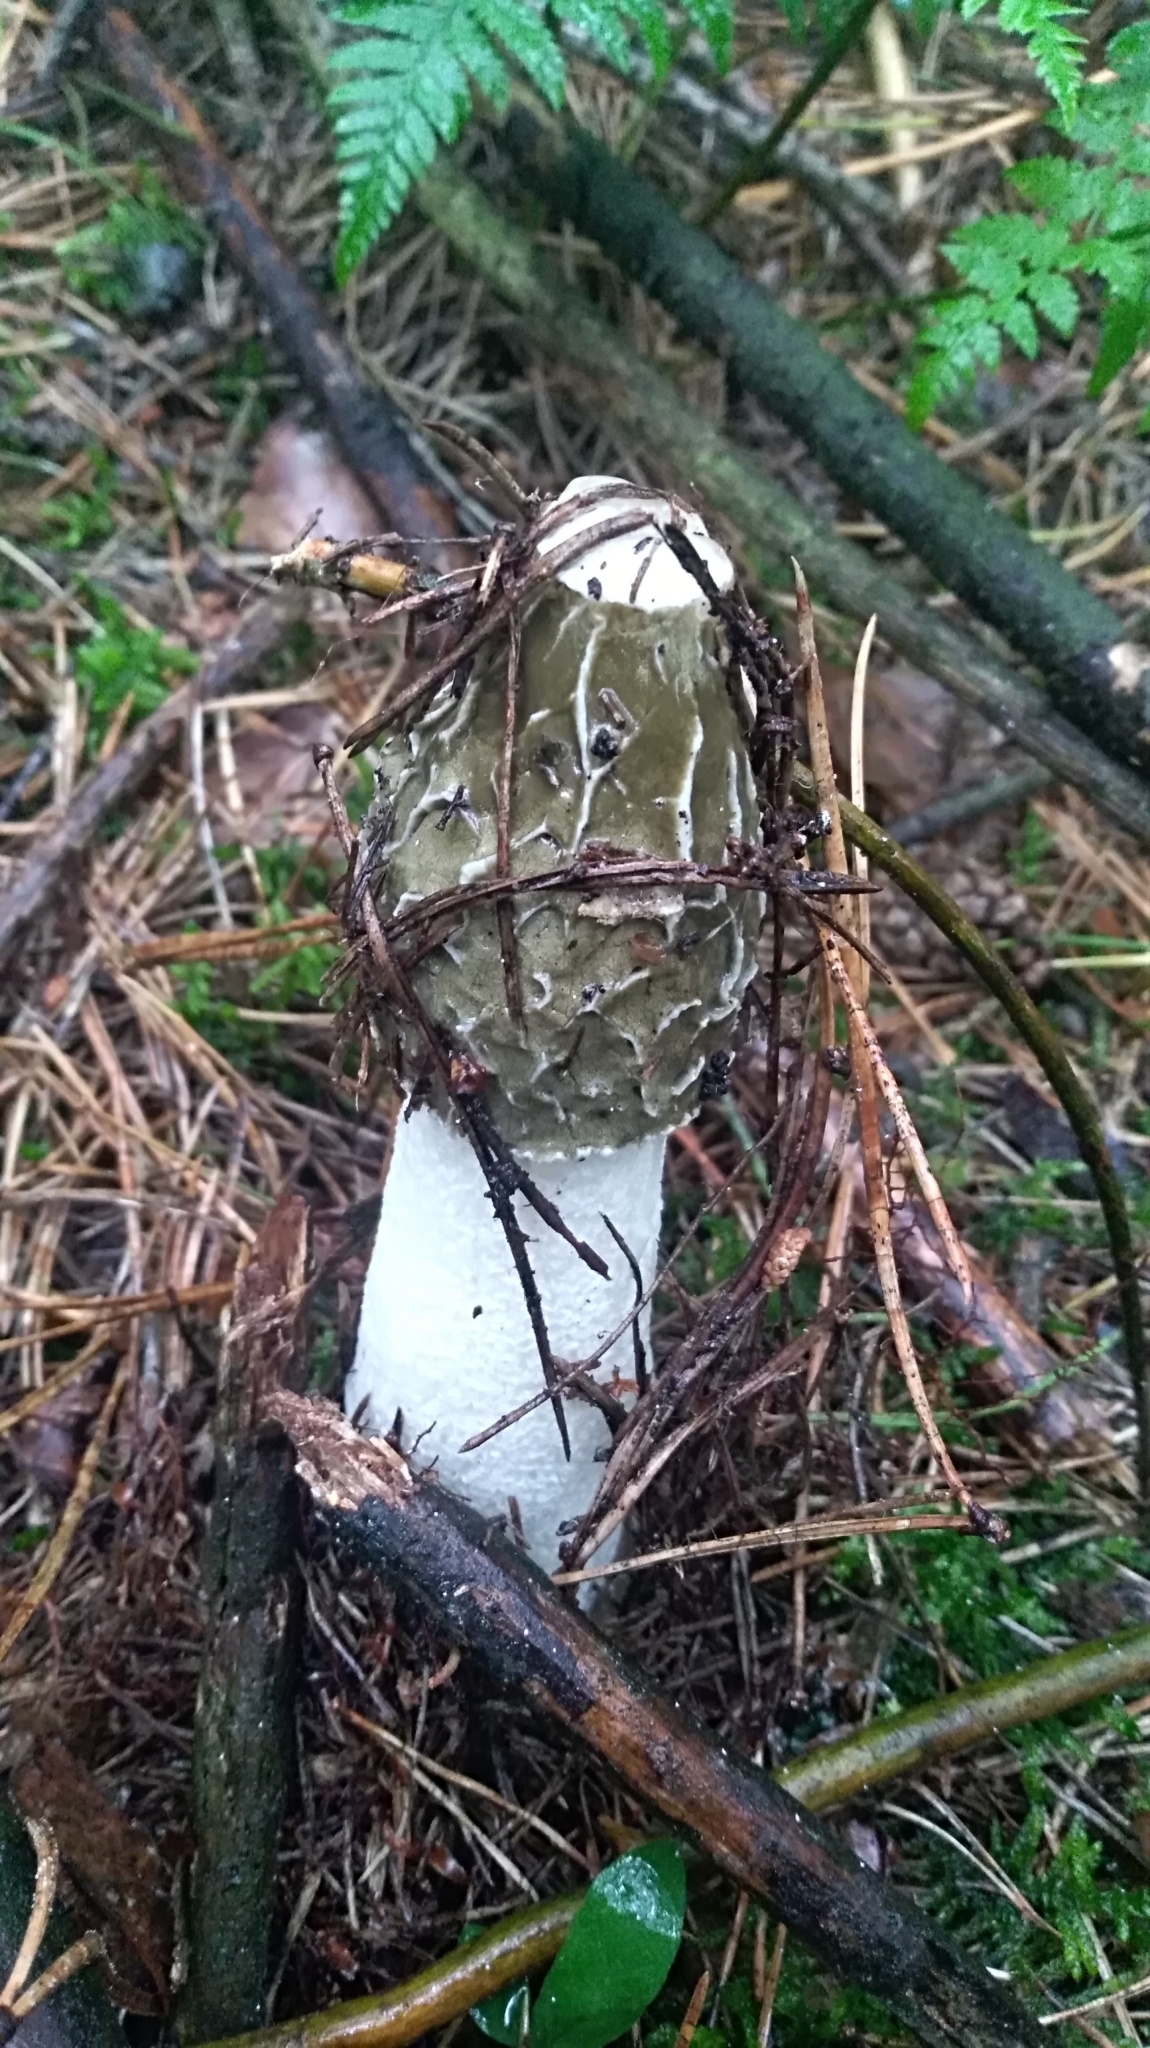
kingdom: Fungi
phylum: Basidiomycota
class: Agaricomycetes
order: Phallales
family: Phallaceae
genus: Phallus
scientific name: Phallus impudicus
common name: Common stinkhorn
